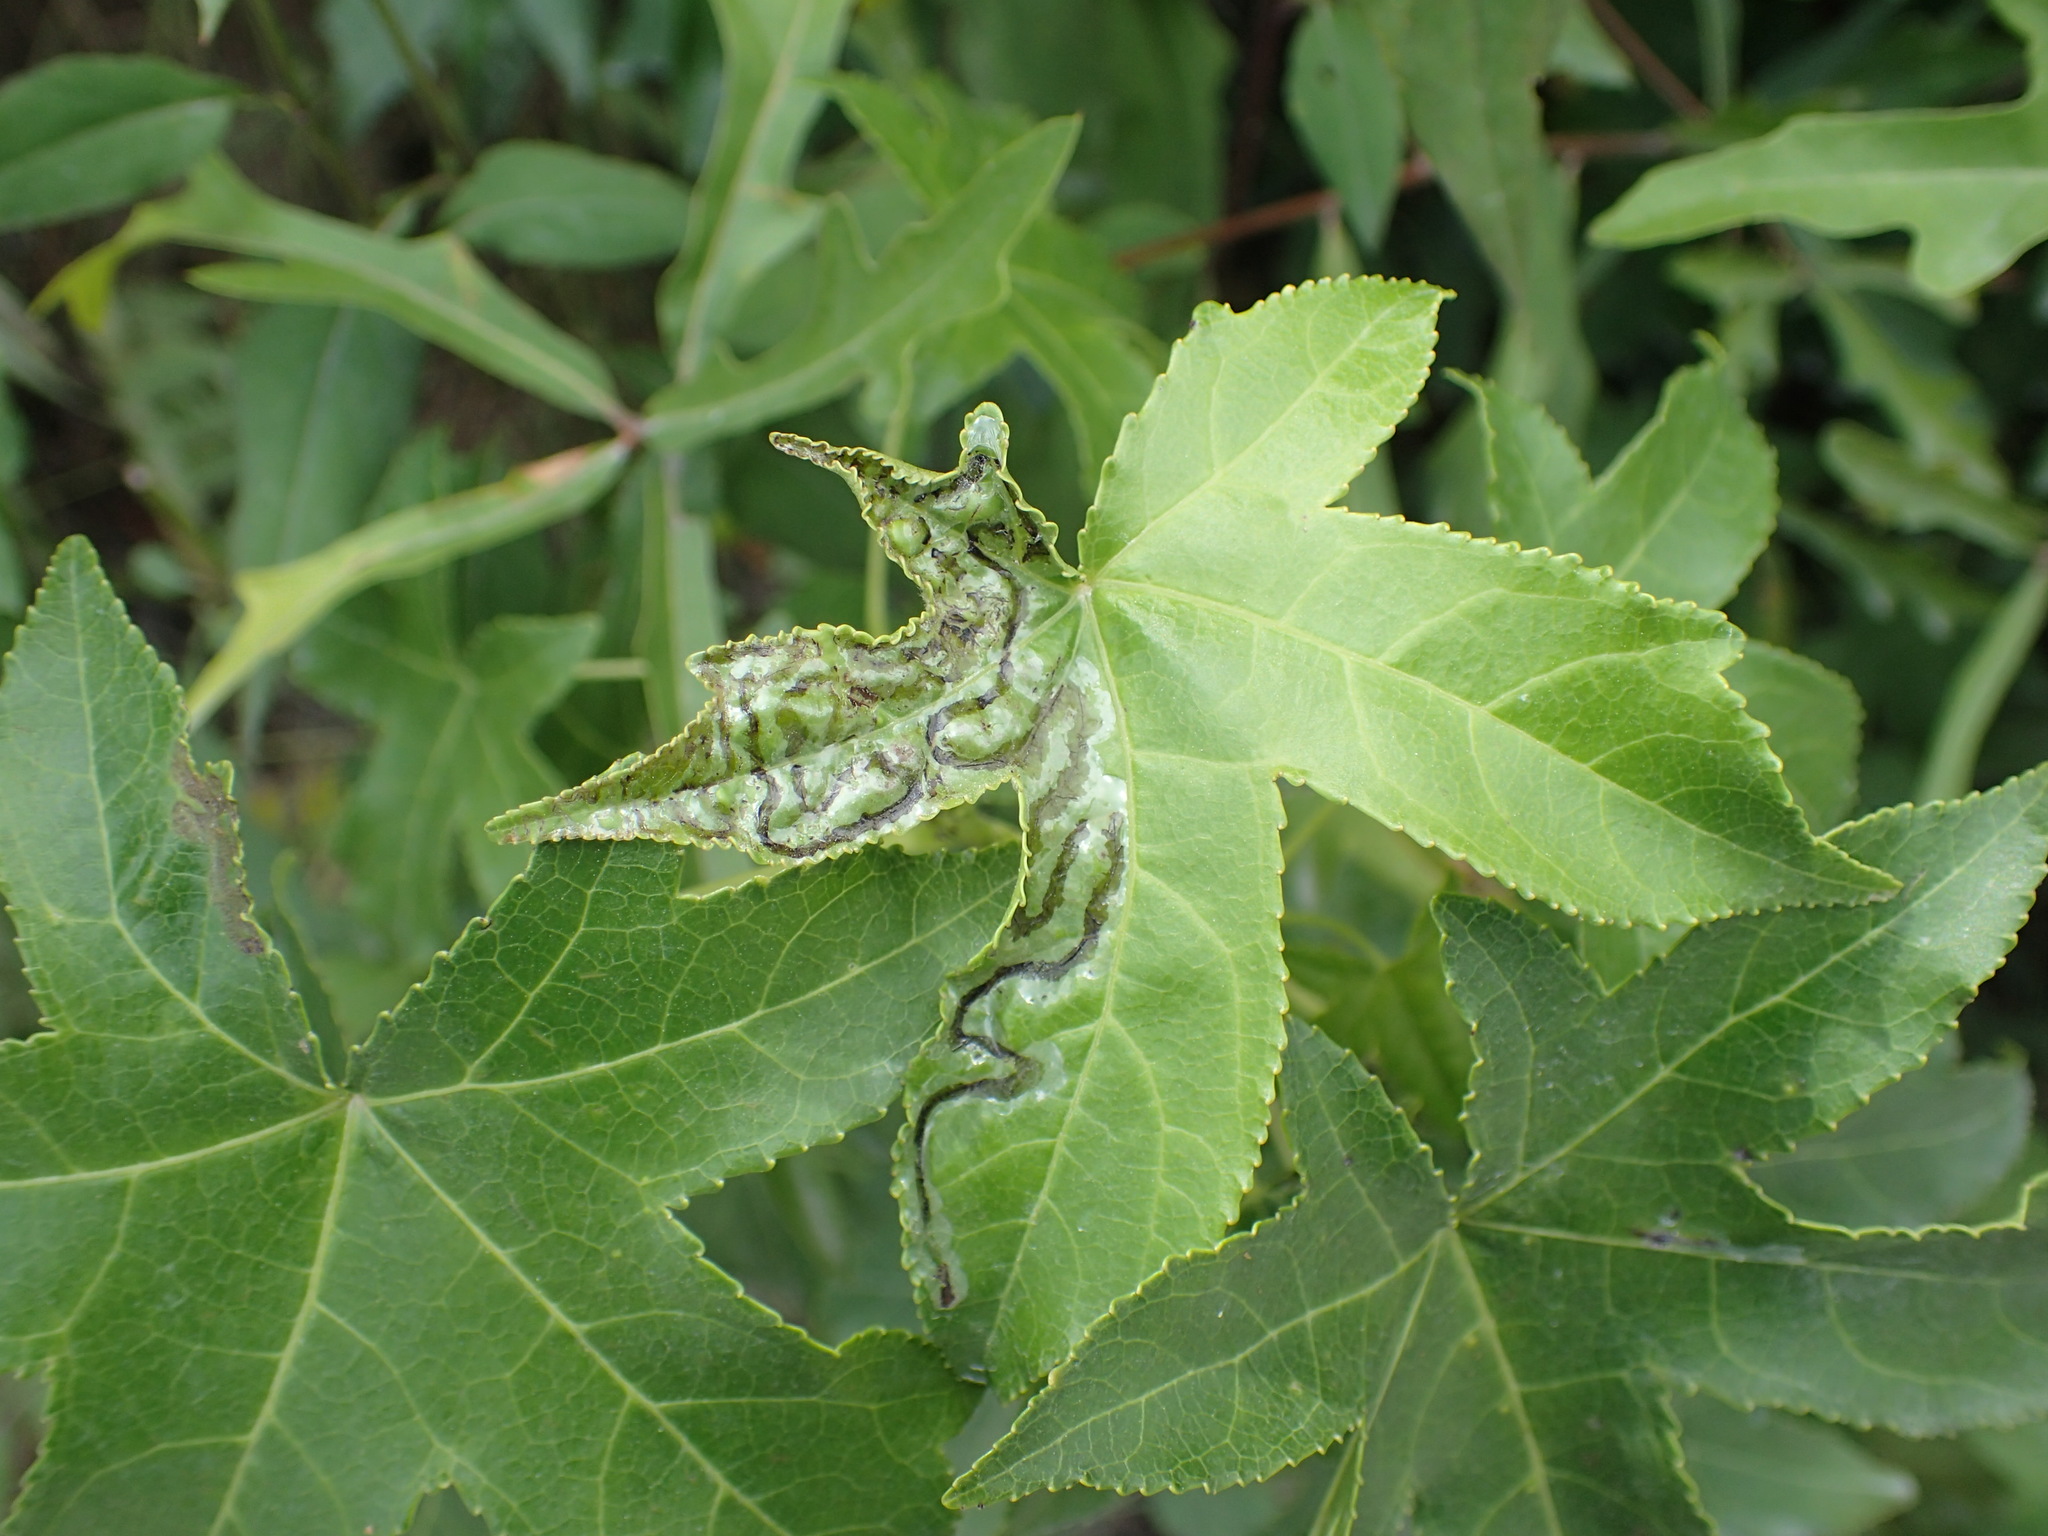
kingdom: Animalia
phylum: Arthropoda
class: Insecta
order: Lepidoptera
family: Gracillariidae
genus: Phyllocnistis
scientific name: Phyllocnistis liquidambarisella
